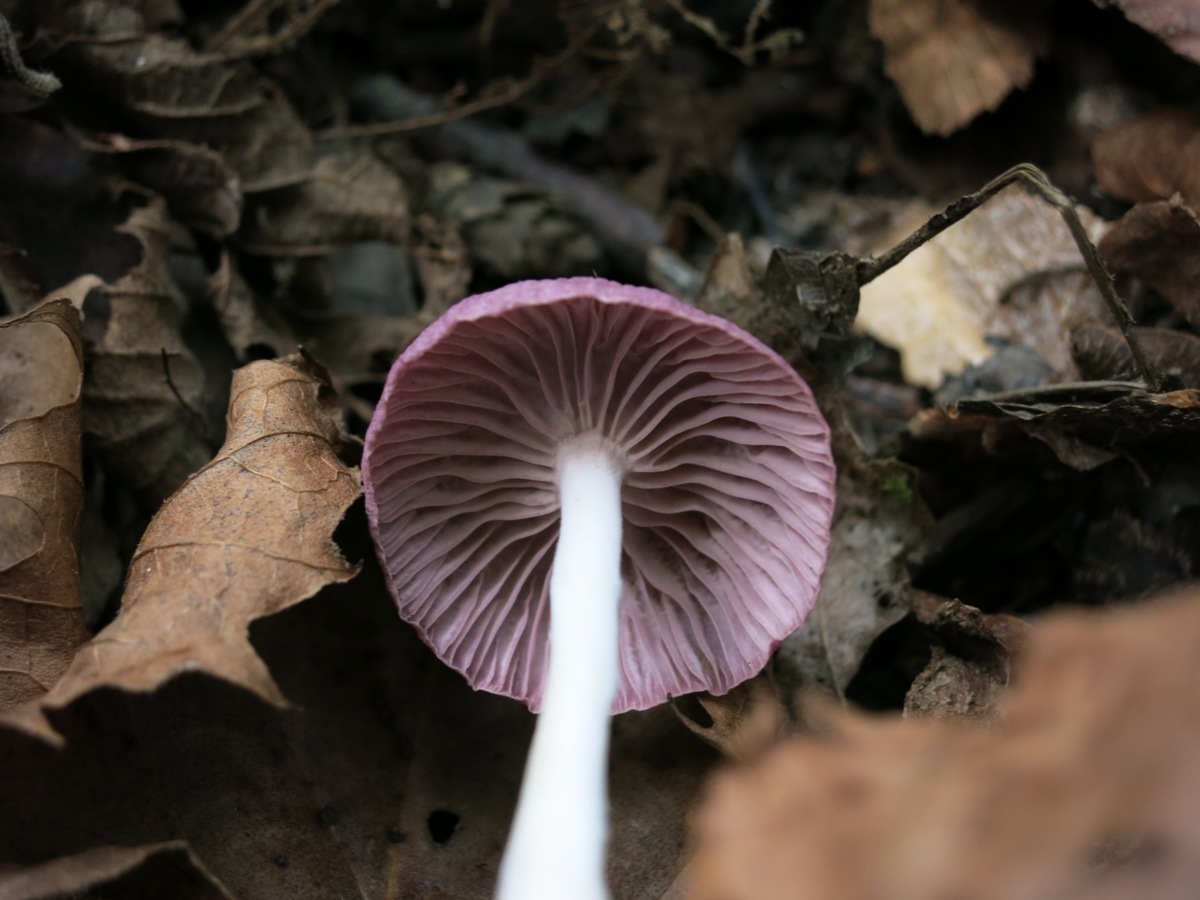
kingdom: Fungi
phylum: Basidiomycota
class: Agaricomycetes
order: Agaricales
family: Omphalotaceae
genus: Gymnopus
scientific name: Gymnopus iocephalus
